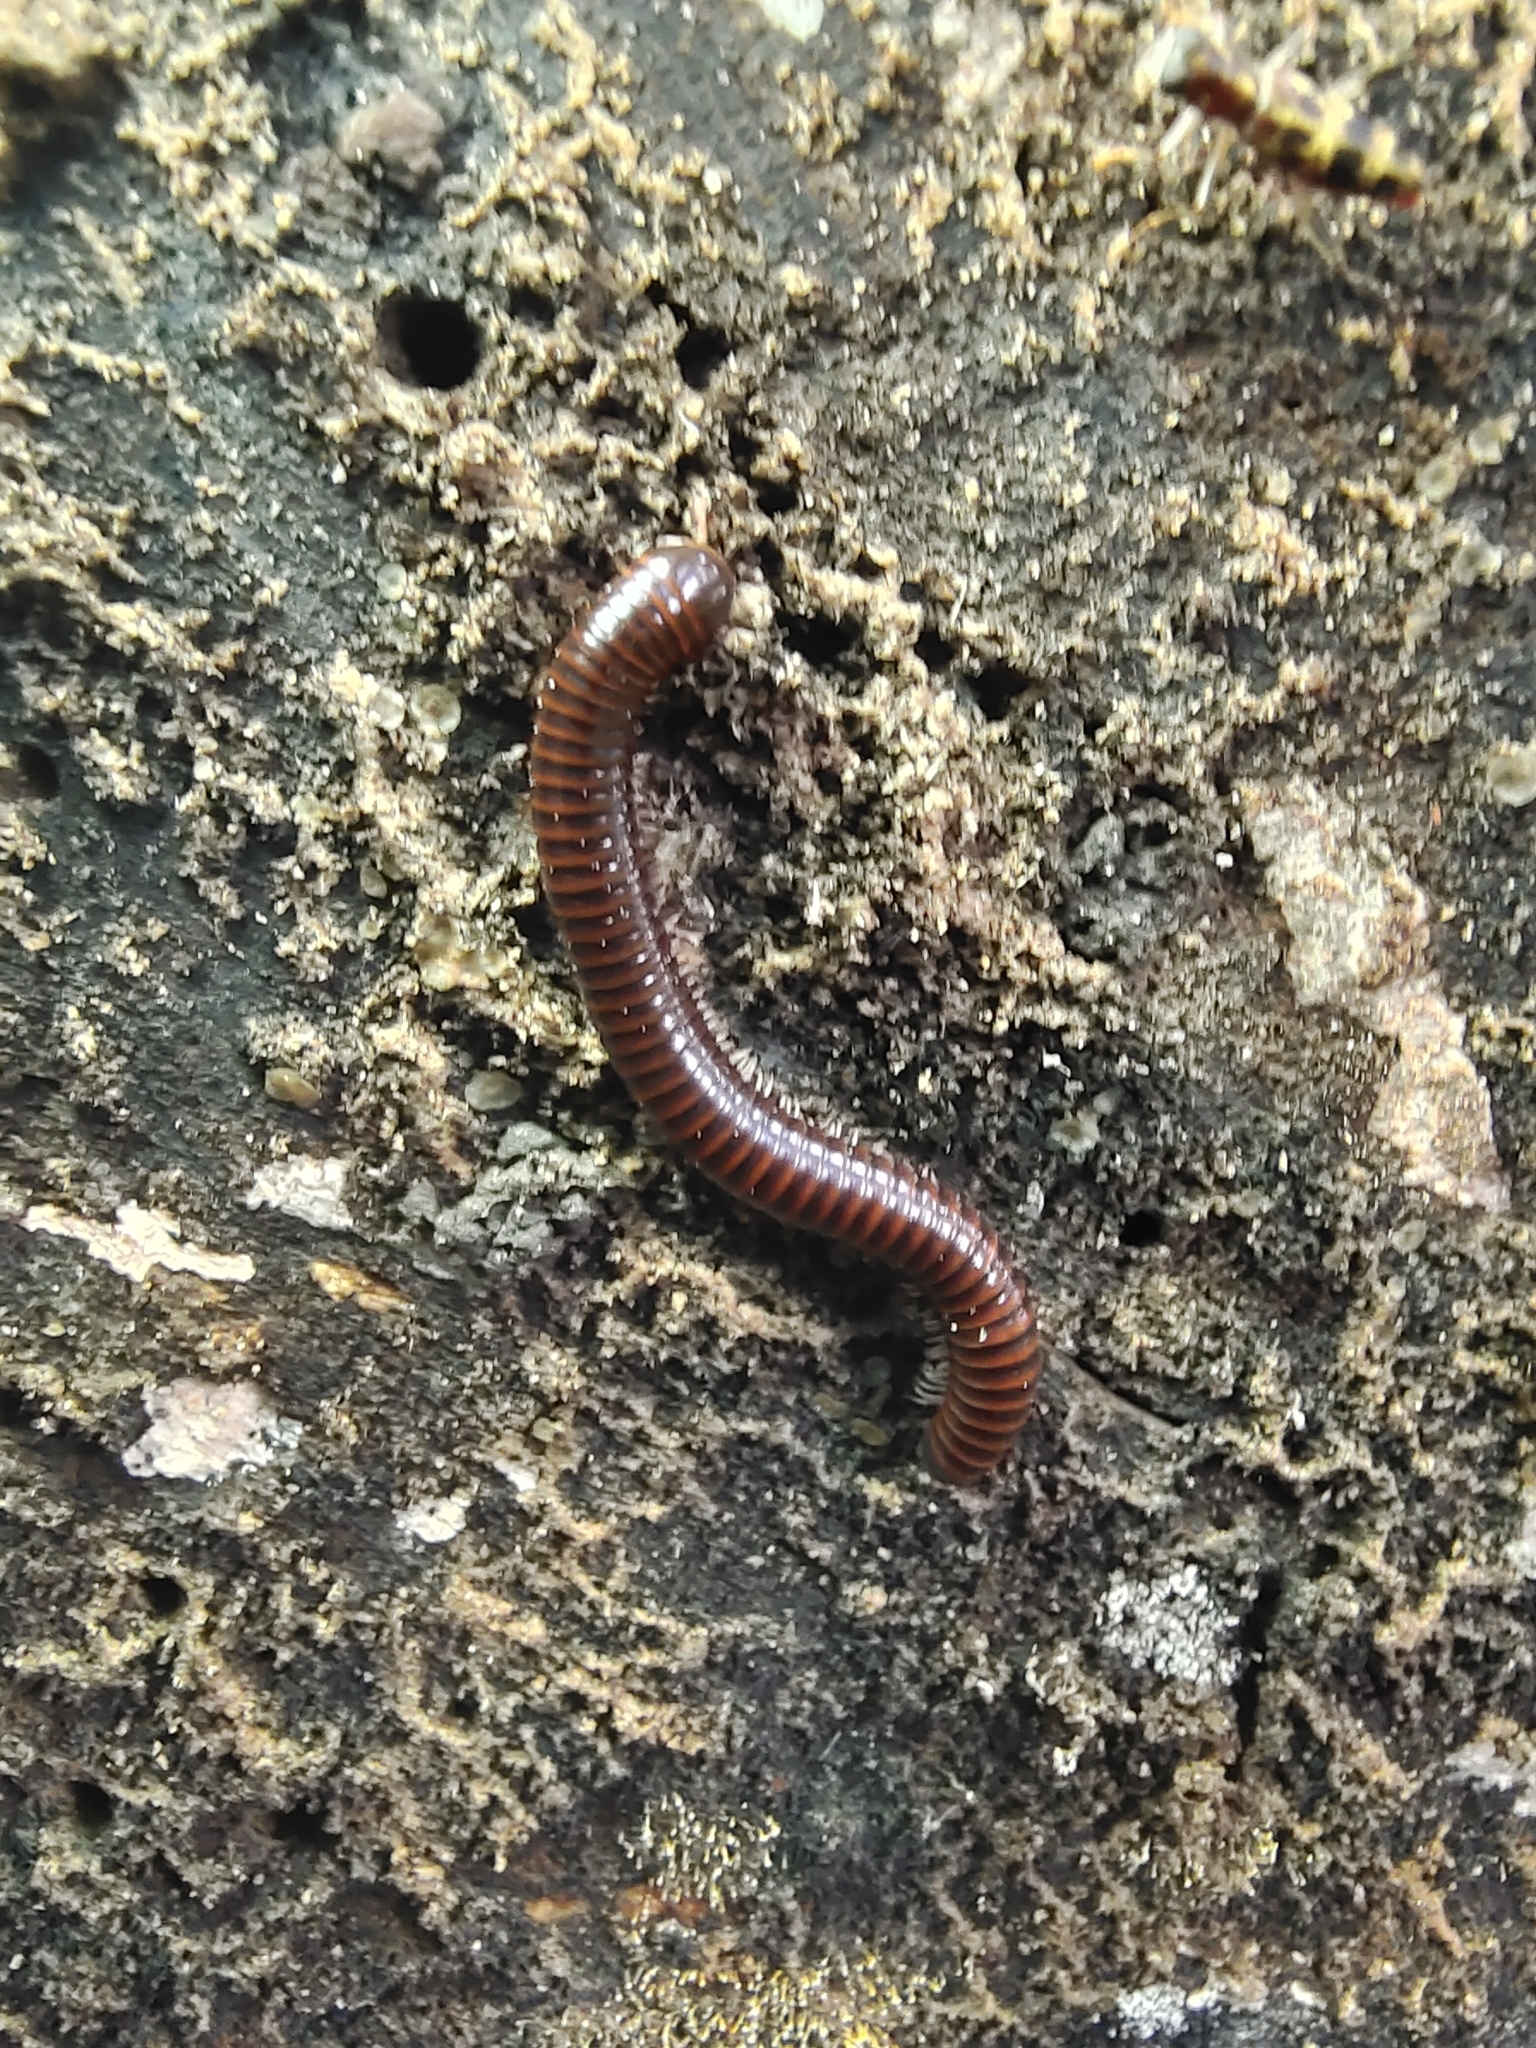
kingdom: Animalia
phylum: Arthropoda
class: Diplopoda
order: Spirobolida
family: Pachybolidae
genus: Leptogoniulus
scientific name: Leptogoniulus sorornus
